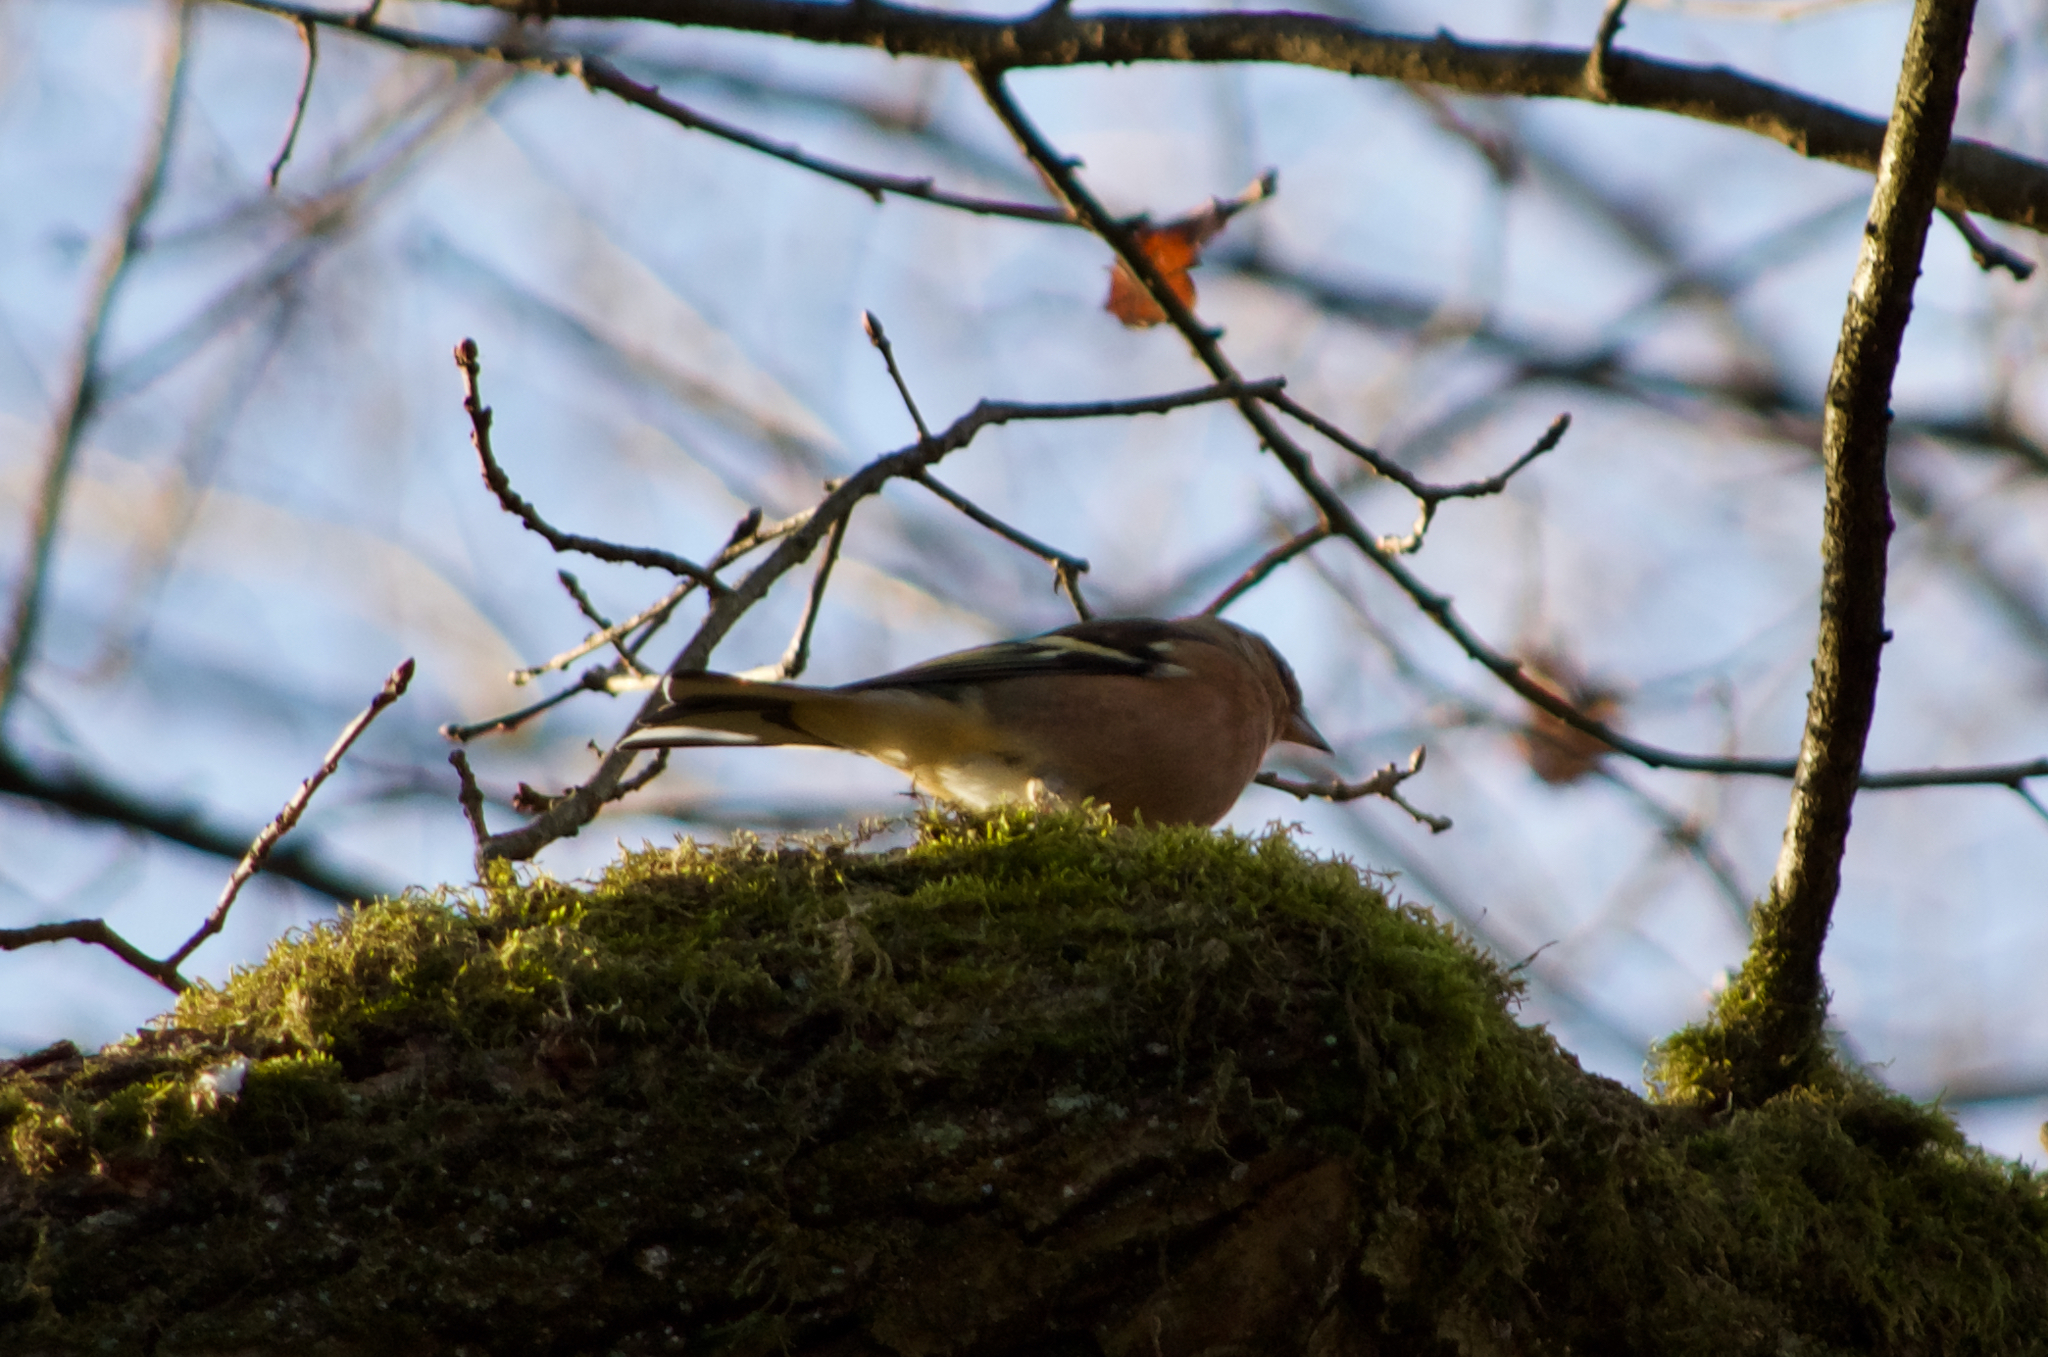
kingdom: Animalia
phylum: Chordata
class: Aves
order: Passeriformes
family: Fringillidae
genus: Fringilla
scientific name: Fringilla coelebs
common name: Common chaffinch
